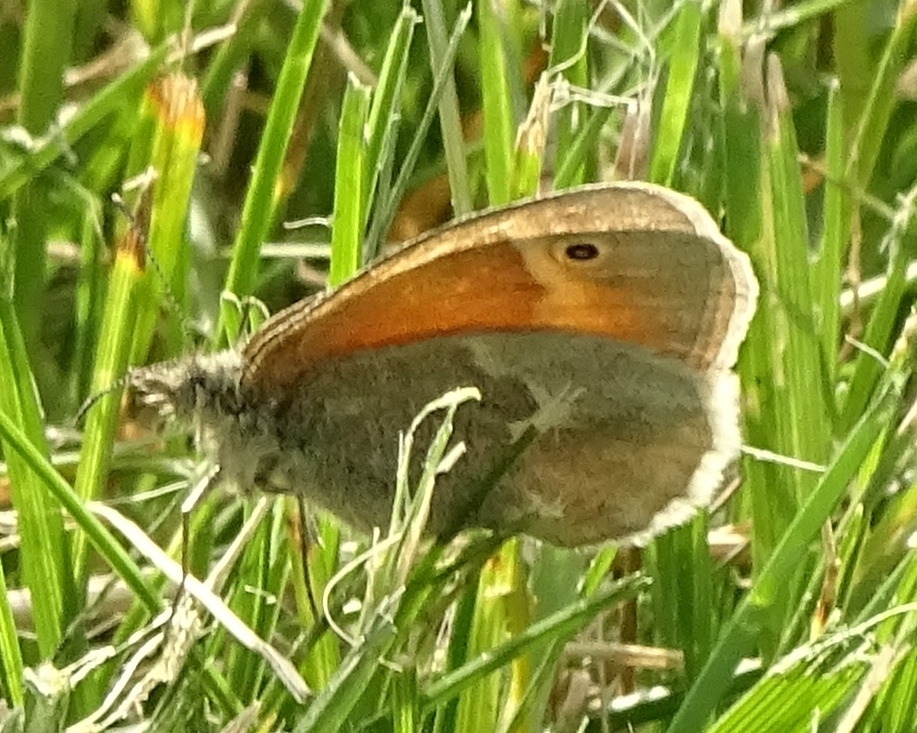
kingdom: Animalia
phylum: Arthropoda
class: Insecta
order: Lepidoptera
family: Nymphalidae
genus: Coenonympha
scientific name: Coenonympha california
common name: Common ringlet
